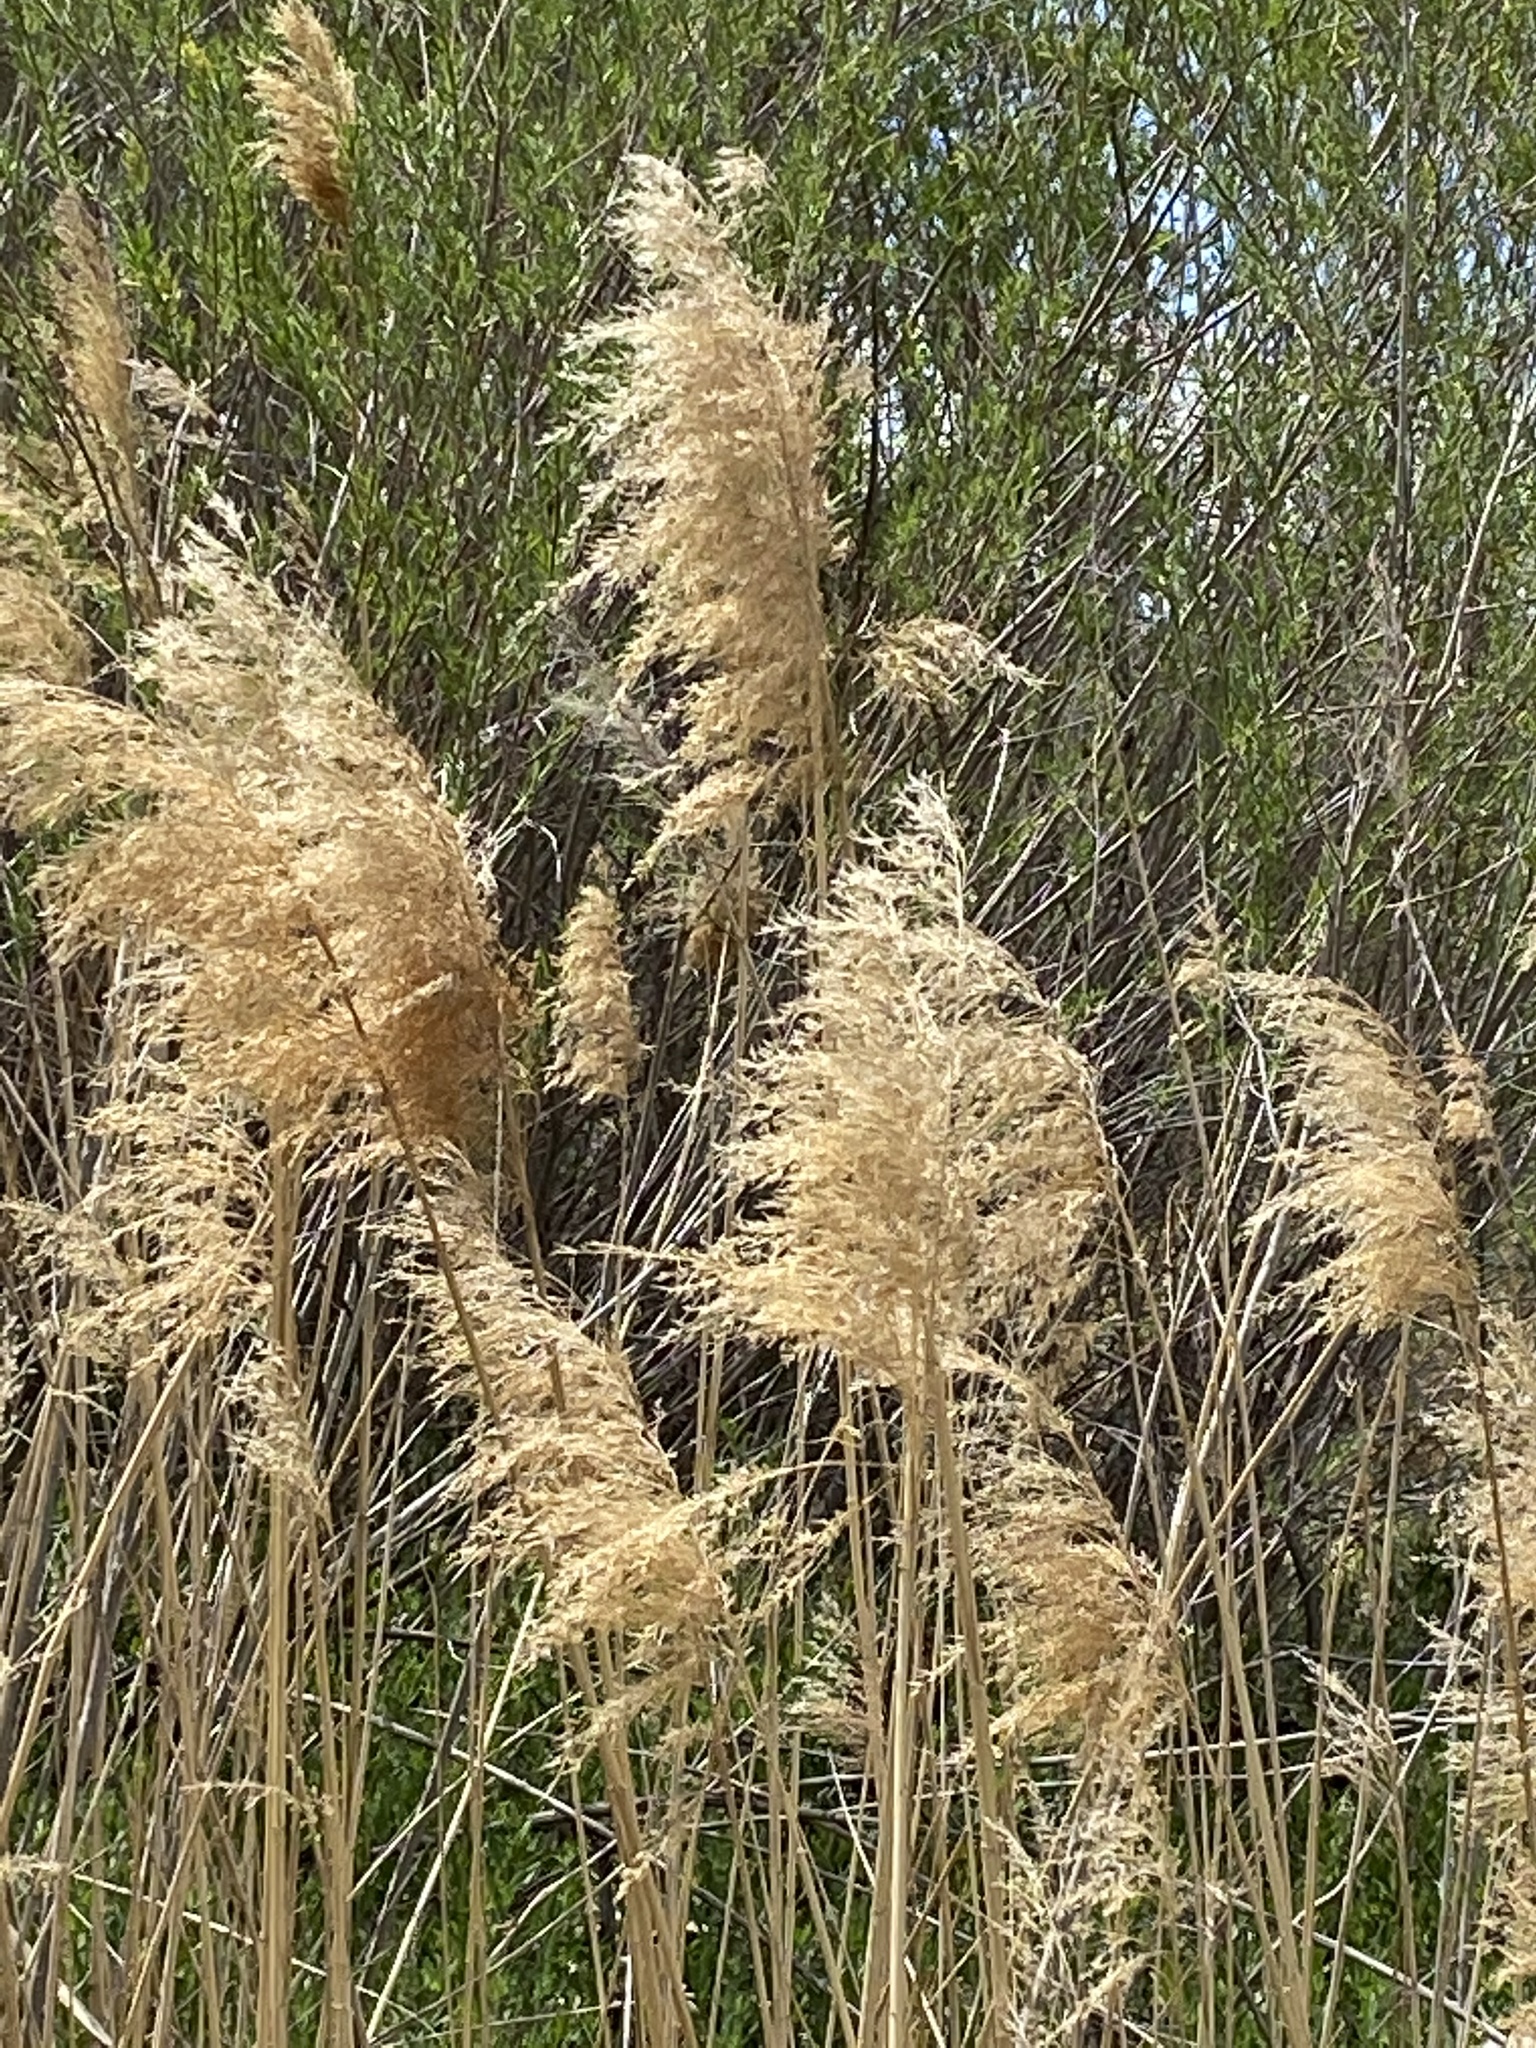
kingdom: Plantae
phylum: Tracheophyta
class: Liliopsida
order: Poales
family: Poaceae
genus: Phragmites
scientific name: Phragmites australis
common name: Common reed
